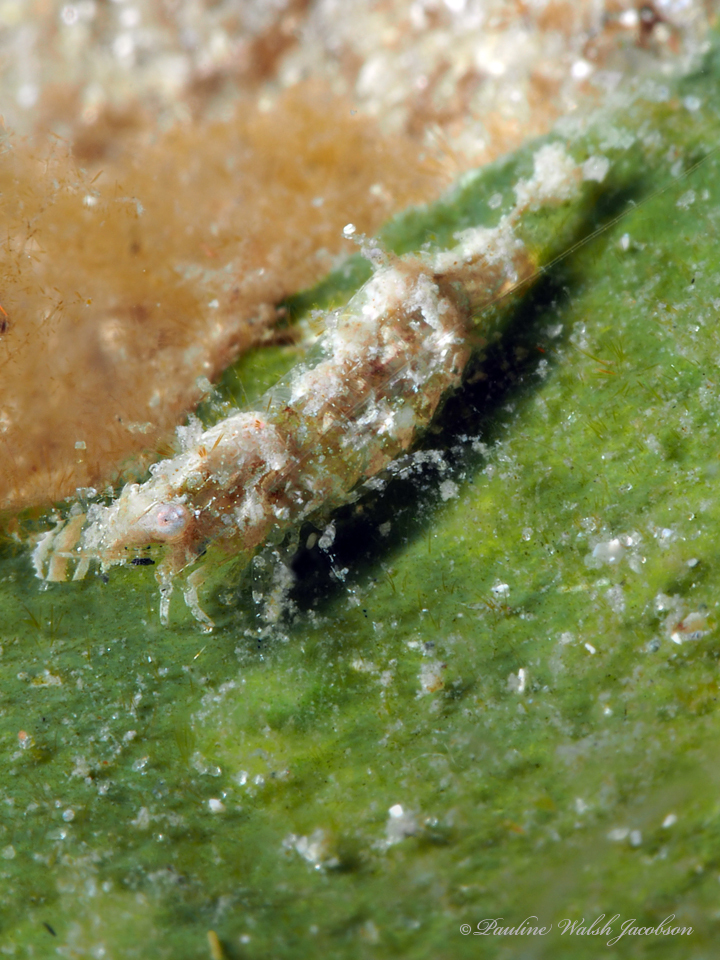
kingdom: Animalia
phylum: Arthropoda
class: Malacostraca
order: Decapoda
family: Palaemonidae
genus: Leander
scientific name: Leander tenuicornis
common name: Brown glass shrimp
